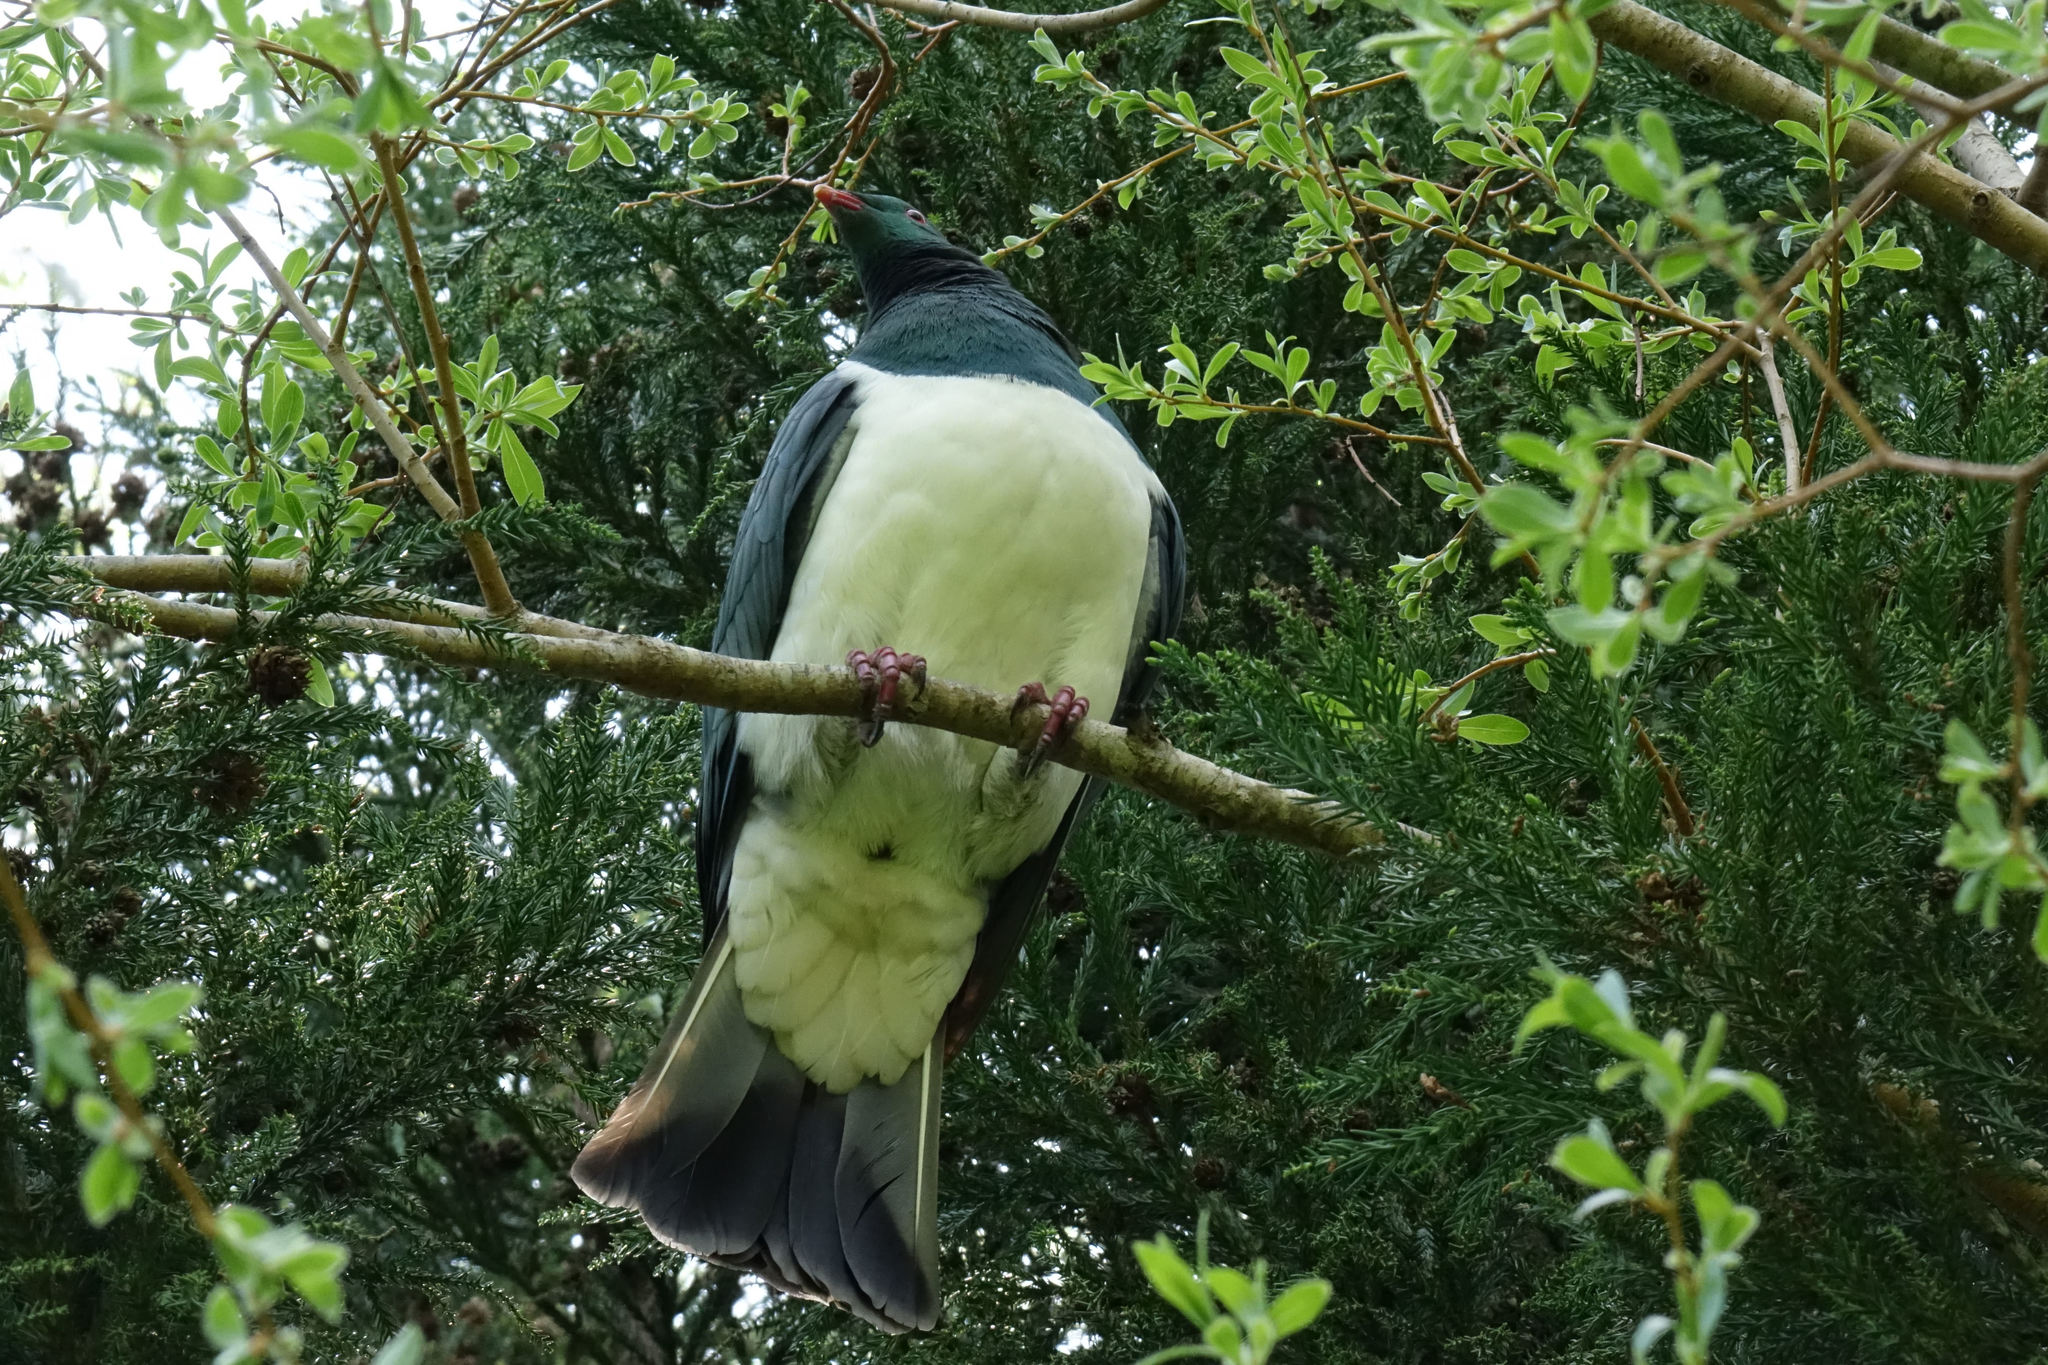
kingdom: Animalia
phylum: Chordata
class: Aves
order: Columbiformes
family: Columbidae
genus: Hemiphaga
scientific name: Hemiphaga novaeseelandiae
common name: New zealand pigeon
